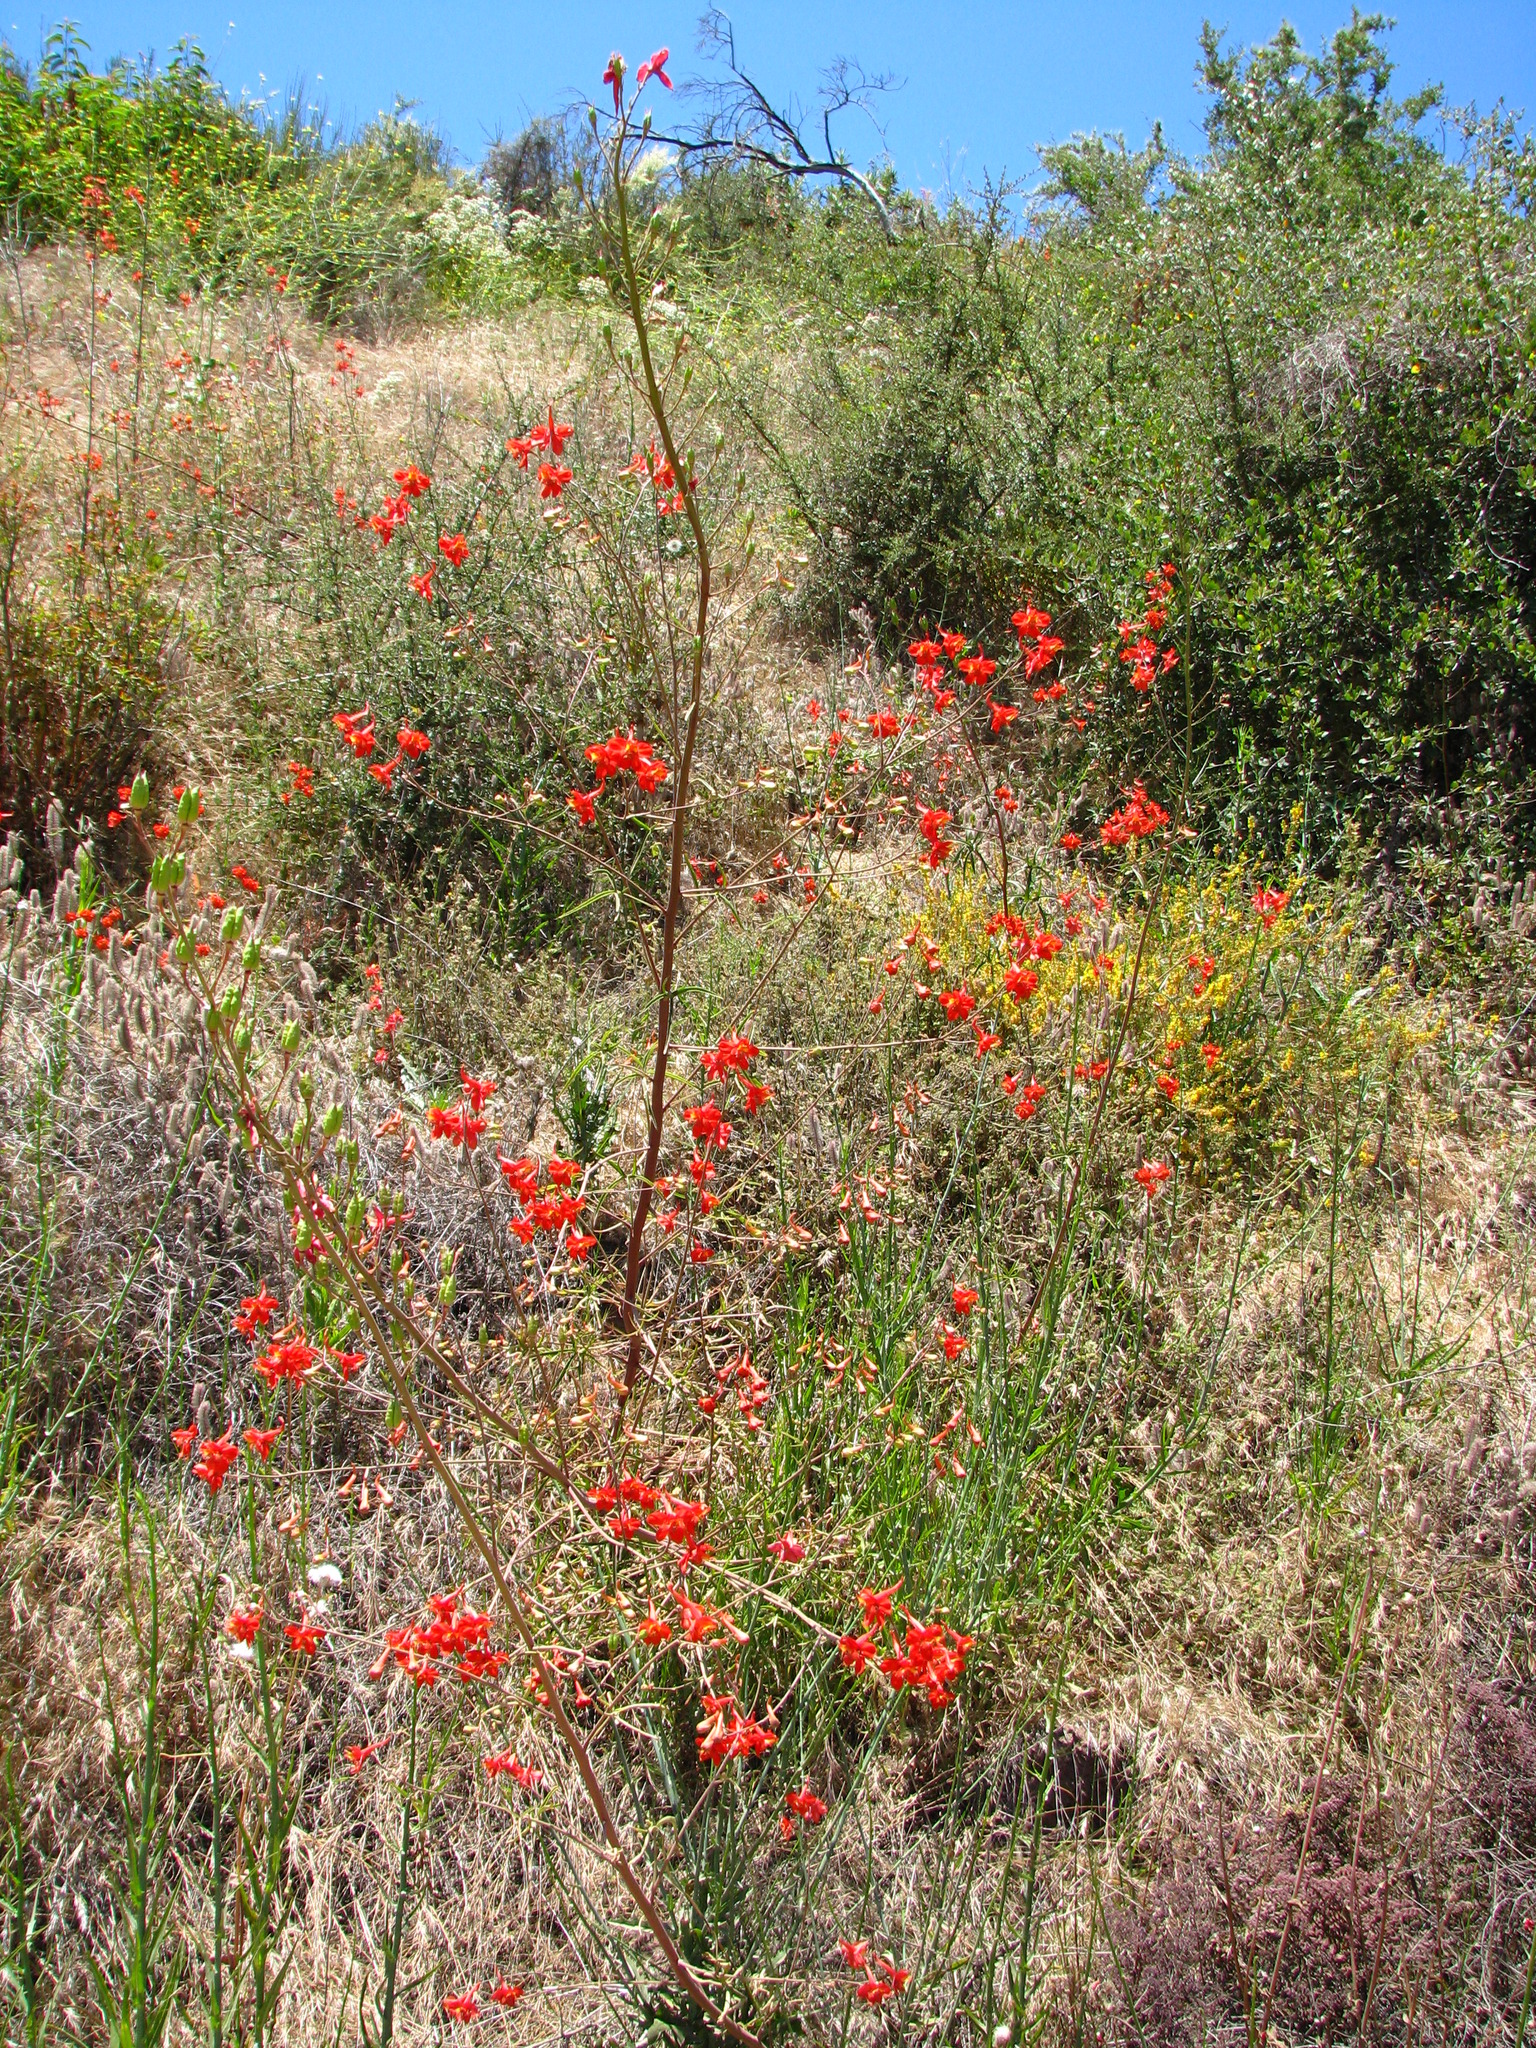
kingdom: Plantae
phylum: Tracheophyta
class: Magnoliopsida
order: Ranunculales
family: Ranunculaceae
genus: Delphinium
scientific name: Delphinium cardinale
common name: Scarlet larkspur
